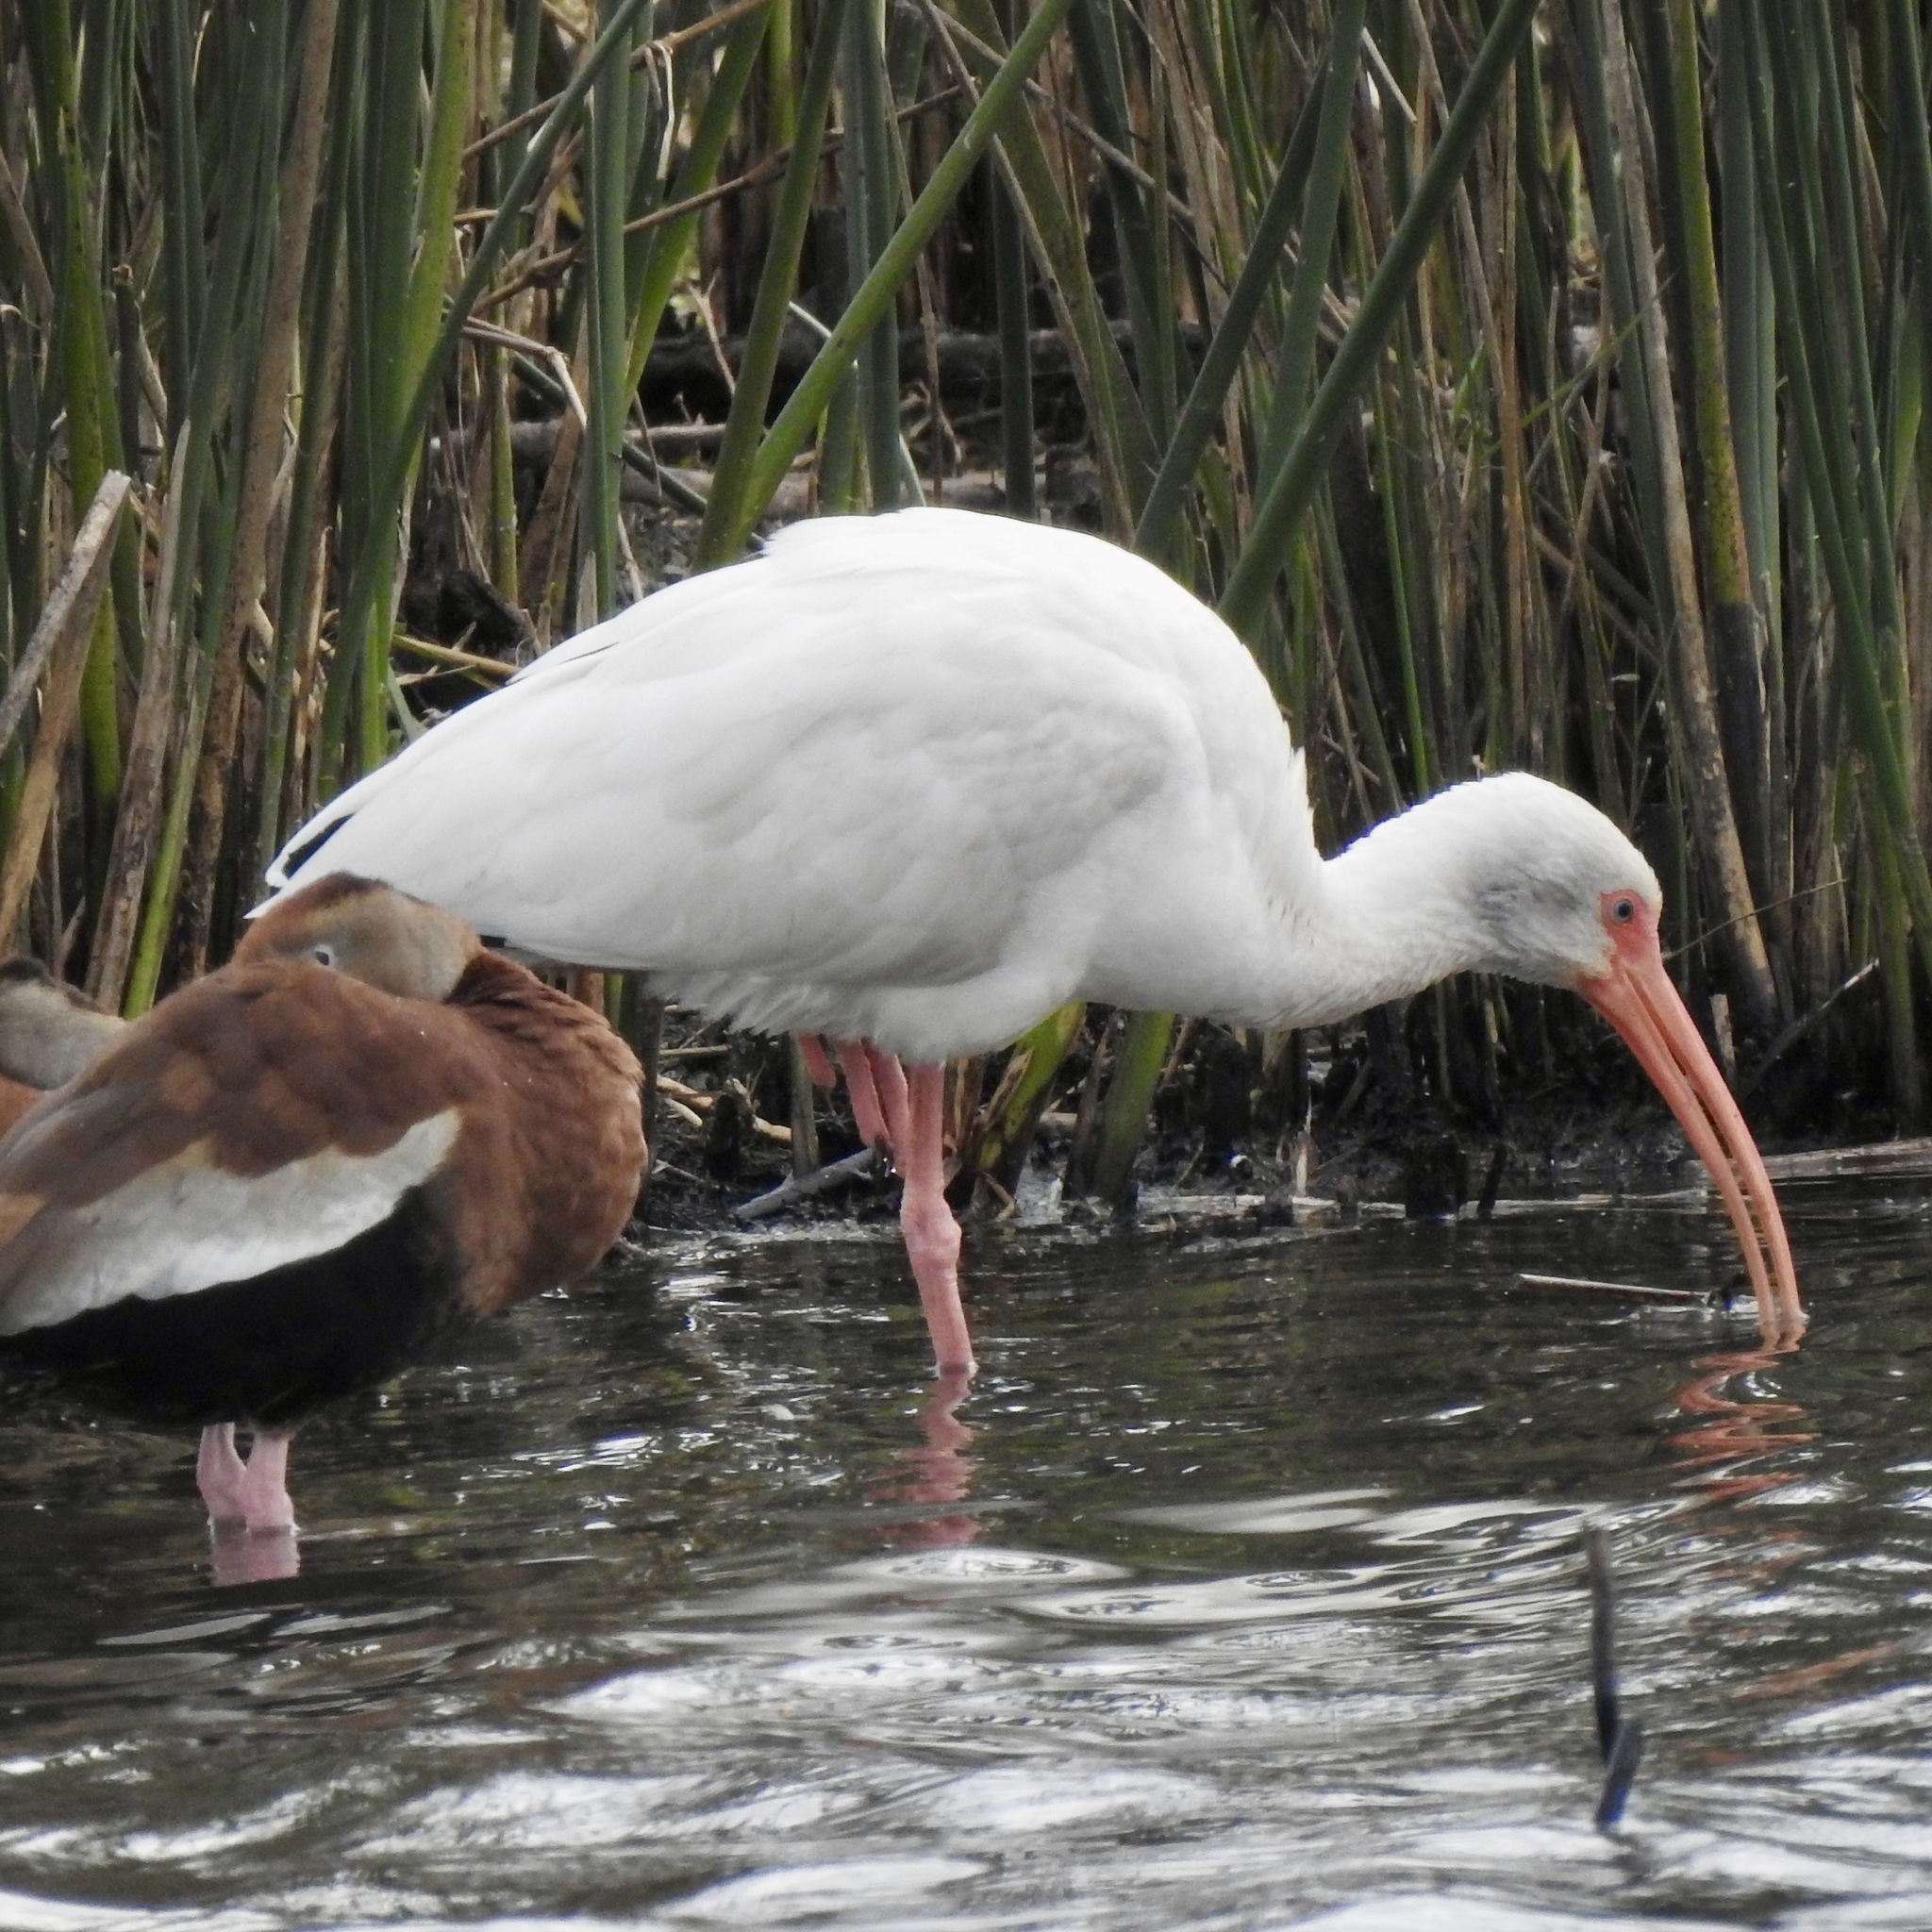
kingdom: Animalia
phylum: Chordata
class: Aves
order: Pelecaniformes
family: Threskiornithidae
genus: Eudocimus
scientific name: Eudocimus albus
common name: White ibis
